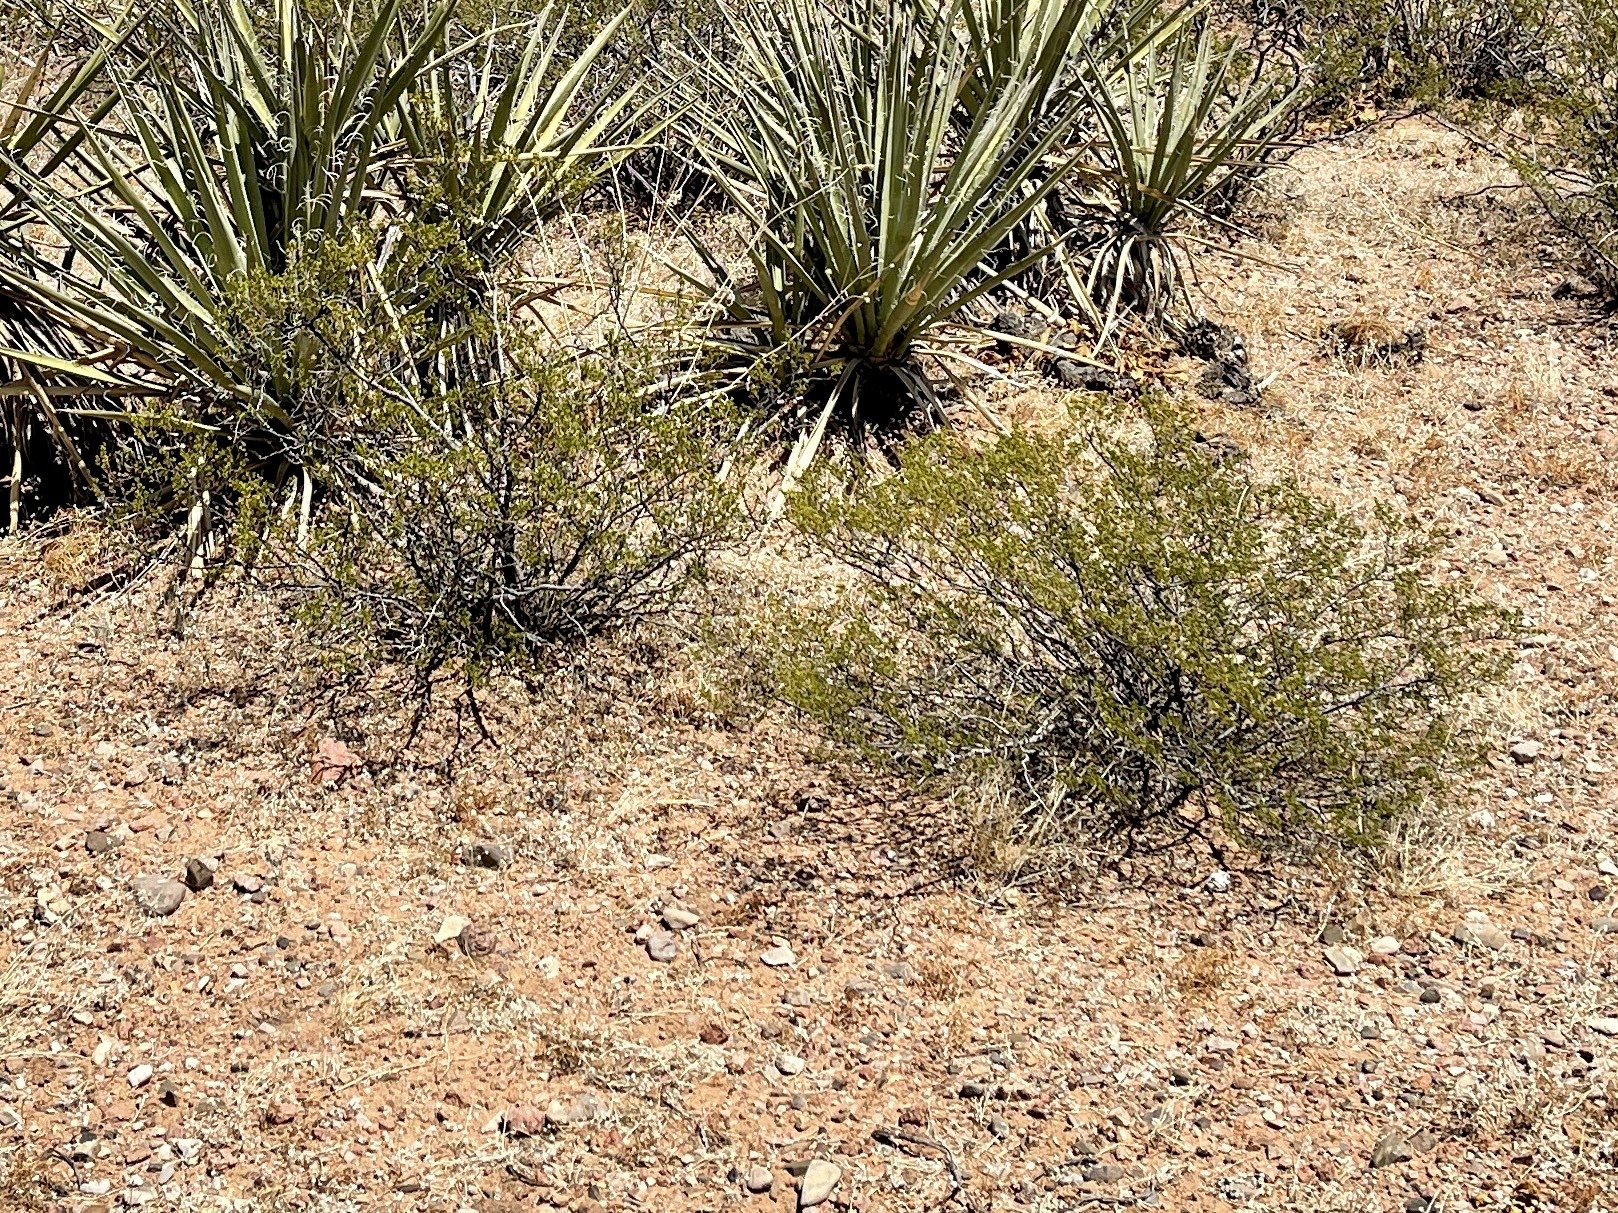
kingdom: Plantae
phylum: Tracheophyta
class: Magnoliopsida
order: Zygophyllales
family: Zygophyllaceae
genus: Larrea
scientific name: Larrea tridentata
